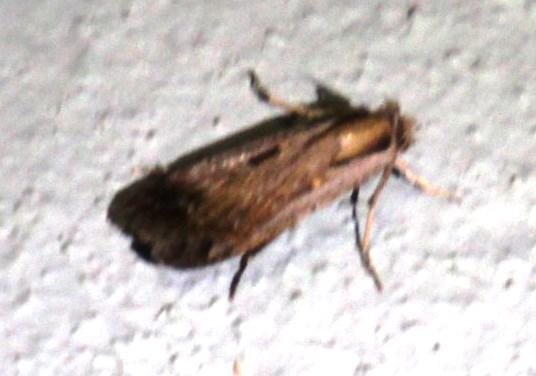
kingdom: Animalia
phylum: Arthropoda
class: Insecta
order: Lepidoptera
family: Noctuidae
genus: Tathorhynchus
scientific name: Tathorhynchus exsiccata
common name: Levant blackneck moth
